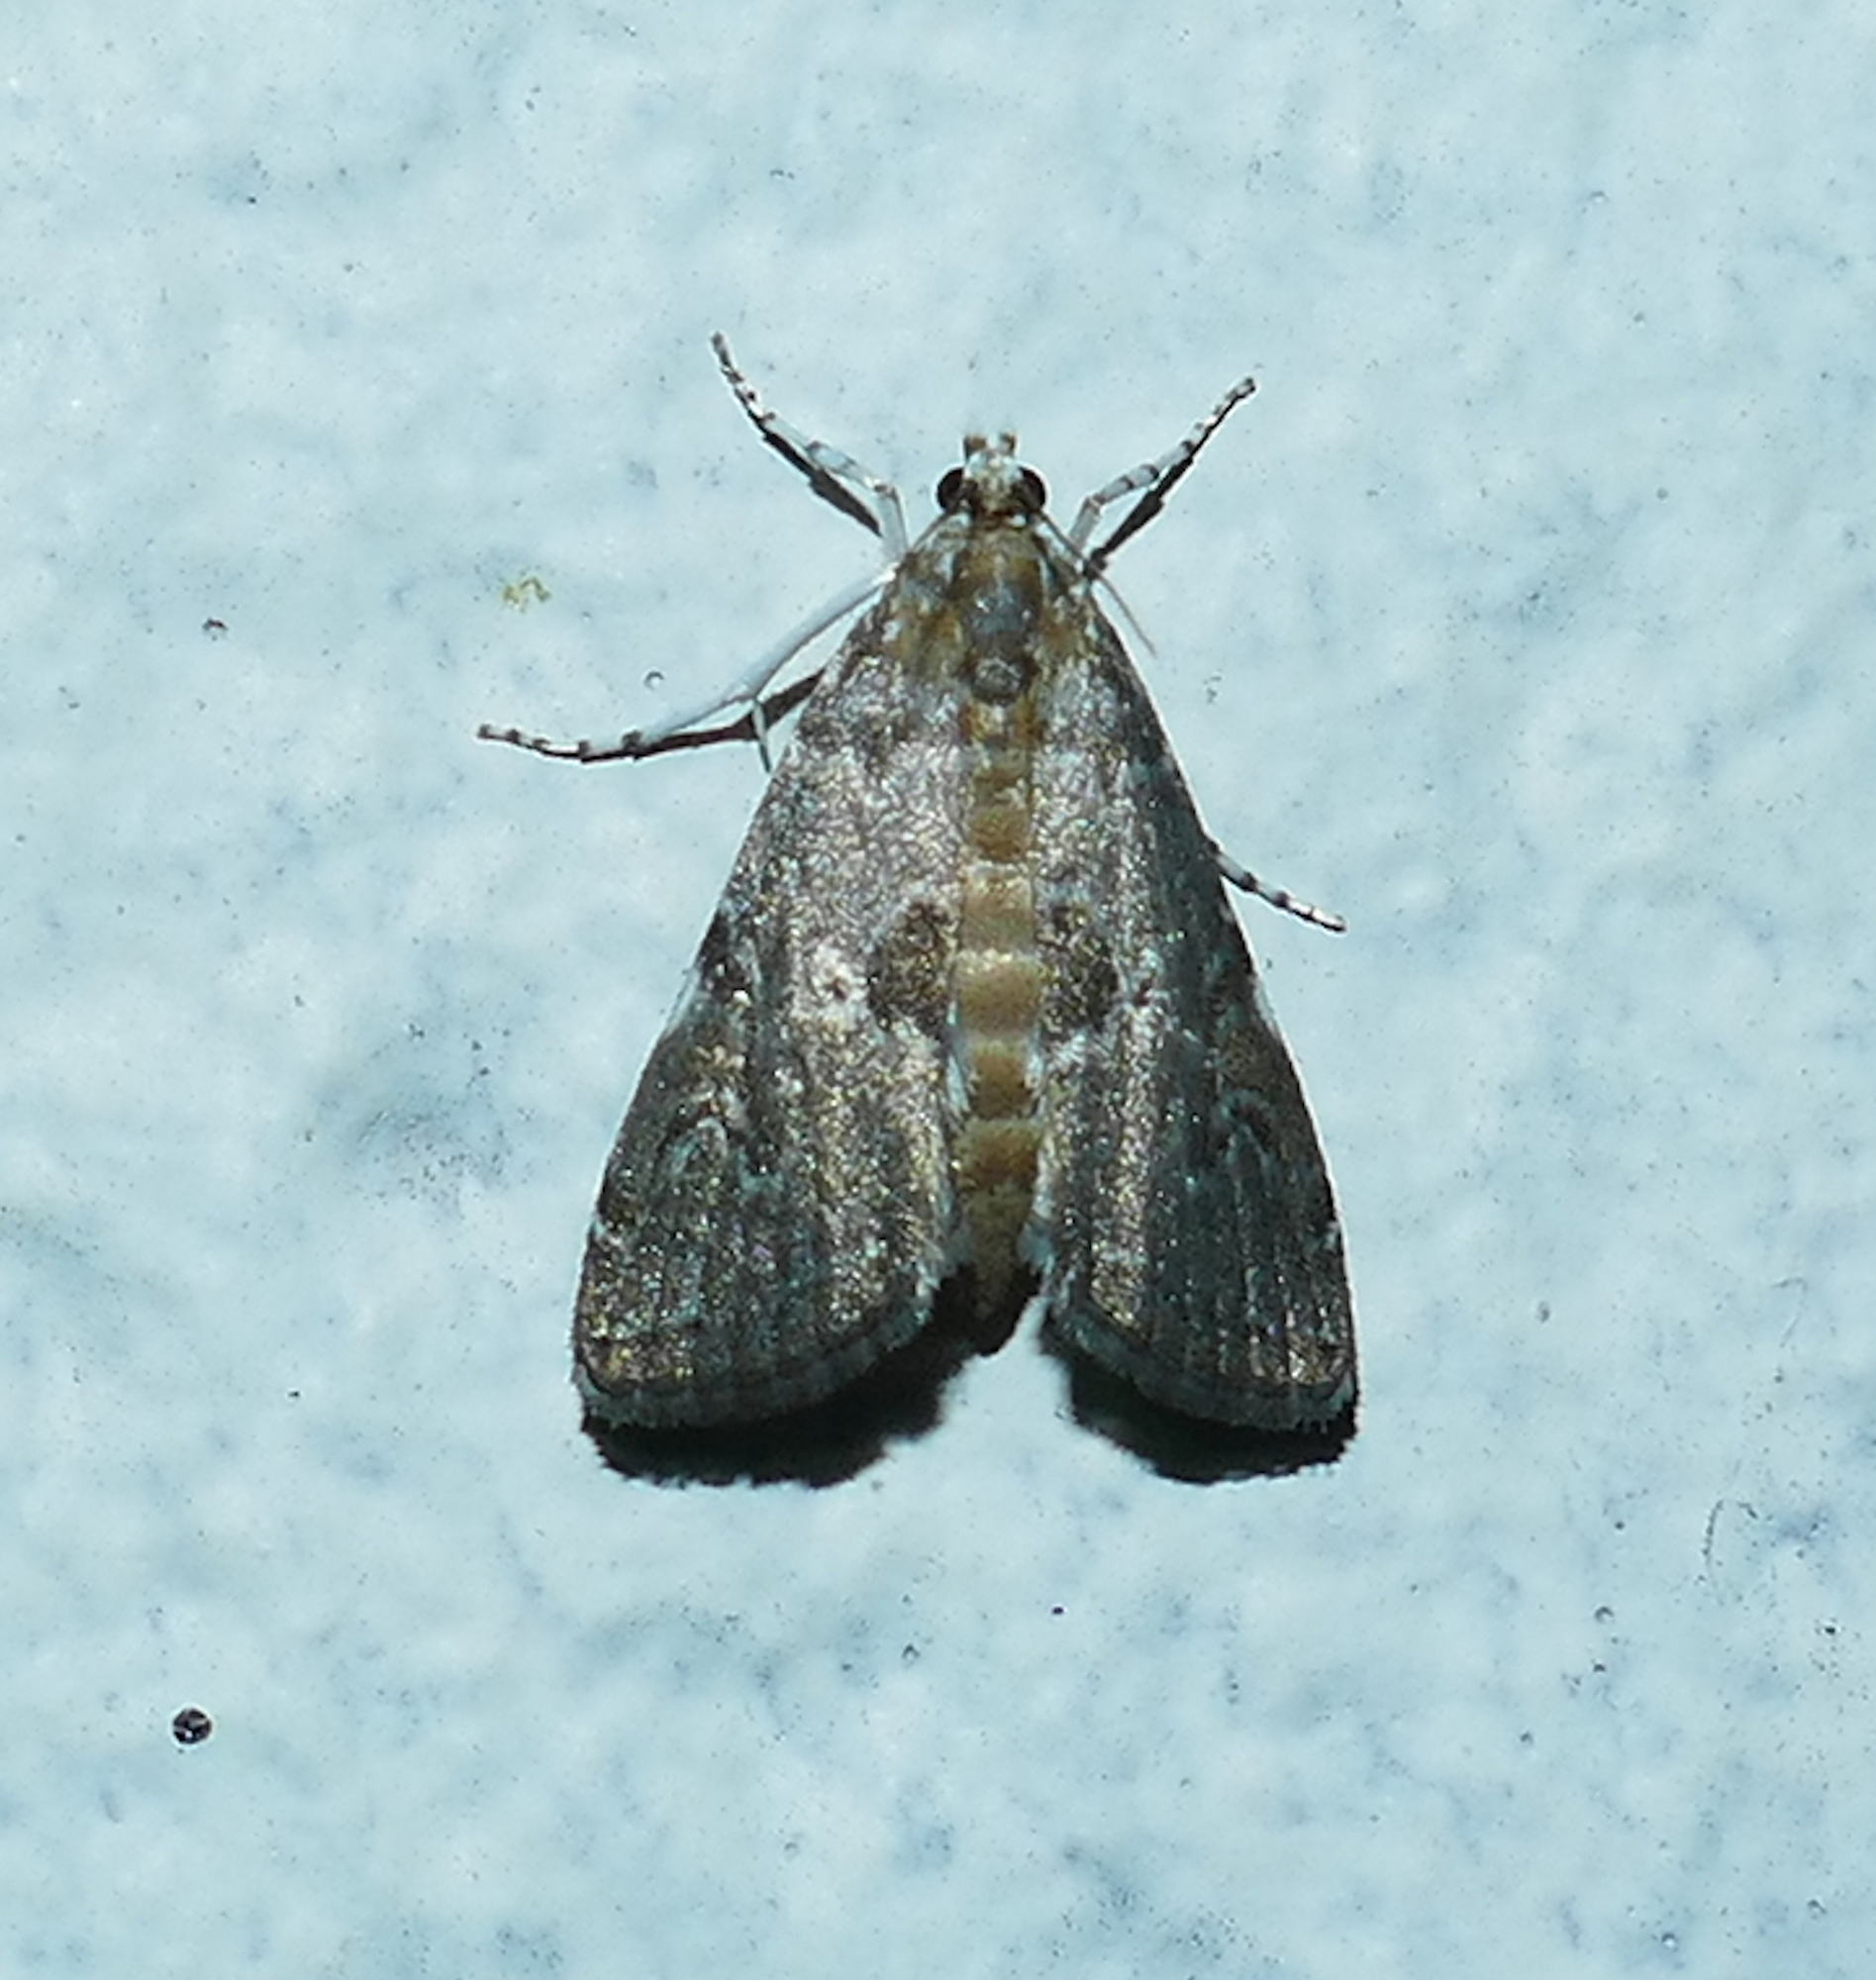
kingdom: Animalia
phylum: Arthropoda
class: Insecta
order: Lepidoptera
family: Crambidae
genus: Elophila
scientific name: Elophila gyralis
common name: Waterlily borer moth
